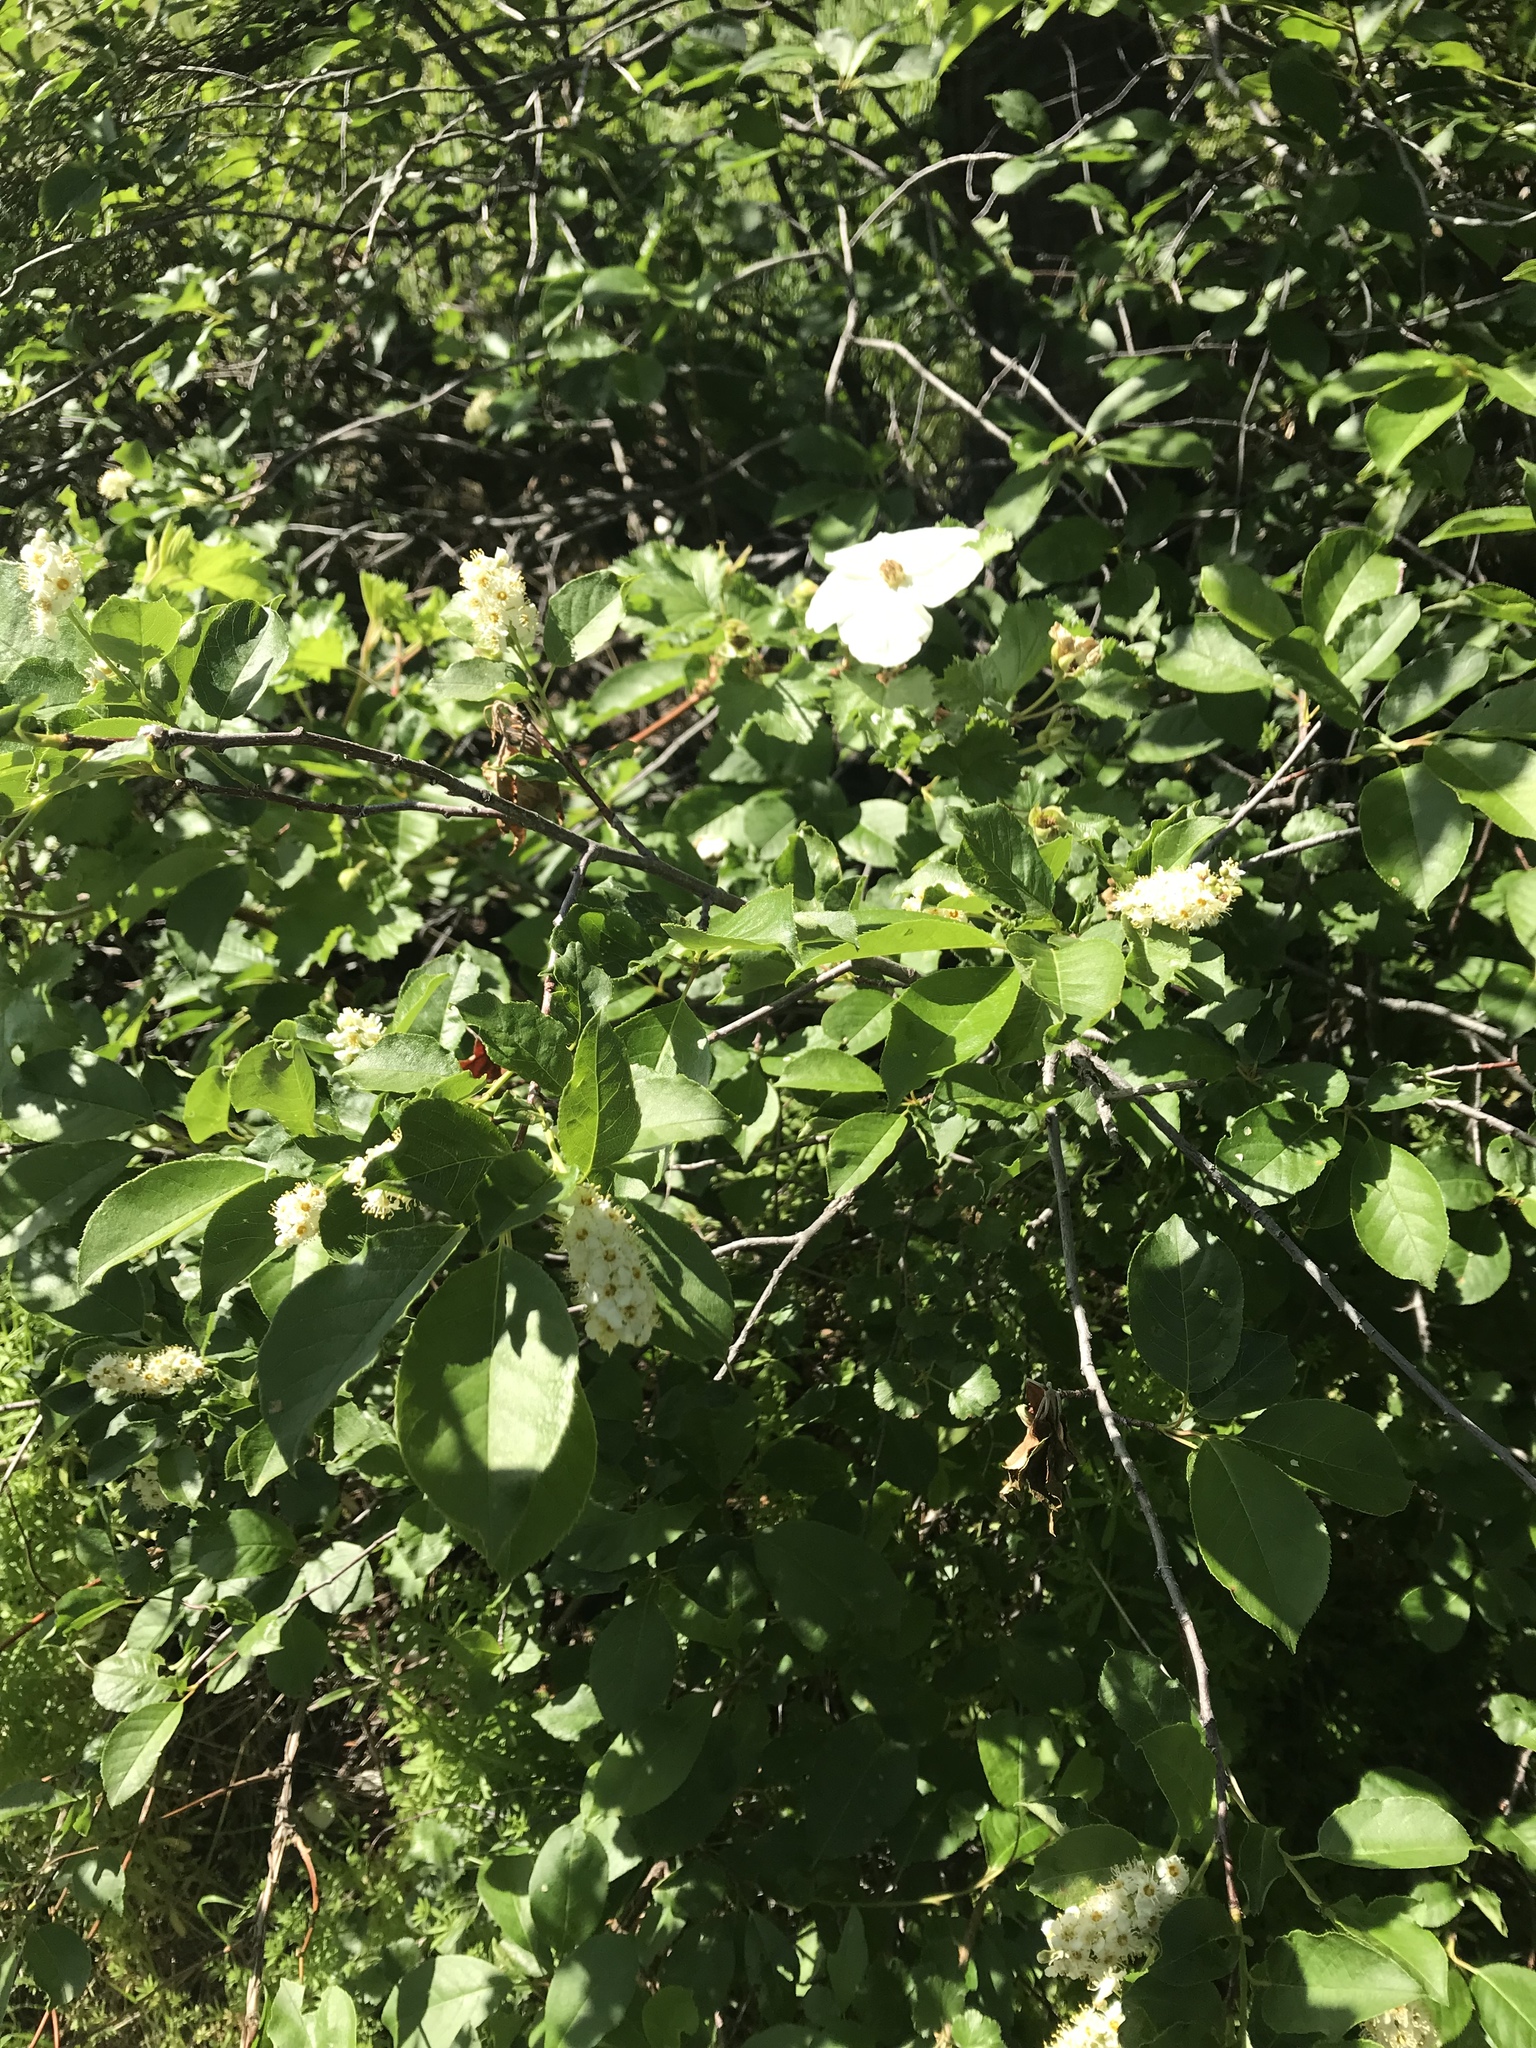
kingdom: Plantae
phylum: Tracheophyta
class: Magnoliopsida
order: Rosales
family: Rosaceae
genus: Rubus
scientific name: Rubus deliciosus
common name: Rocky mountain raspberry
